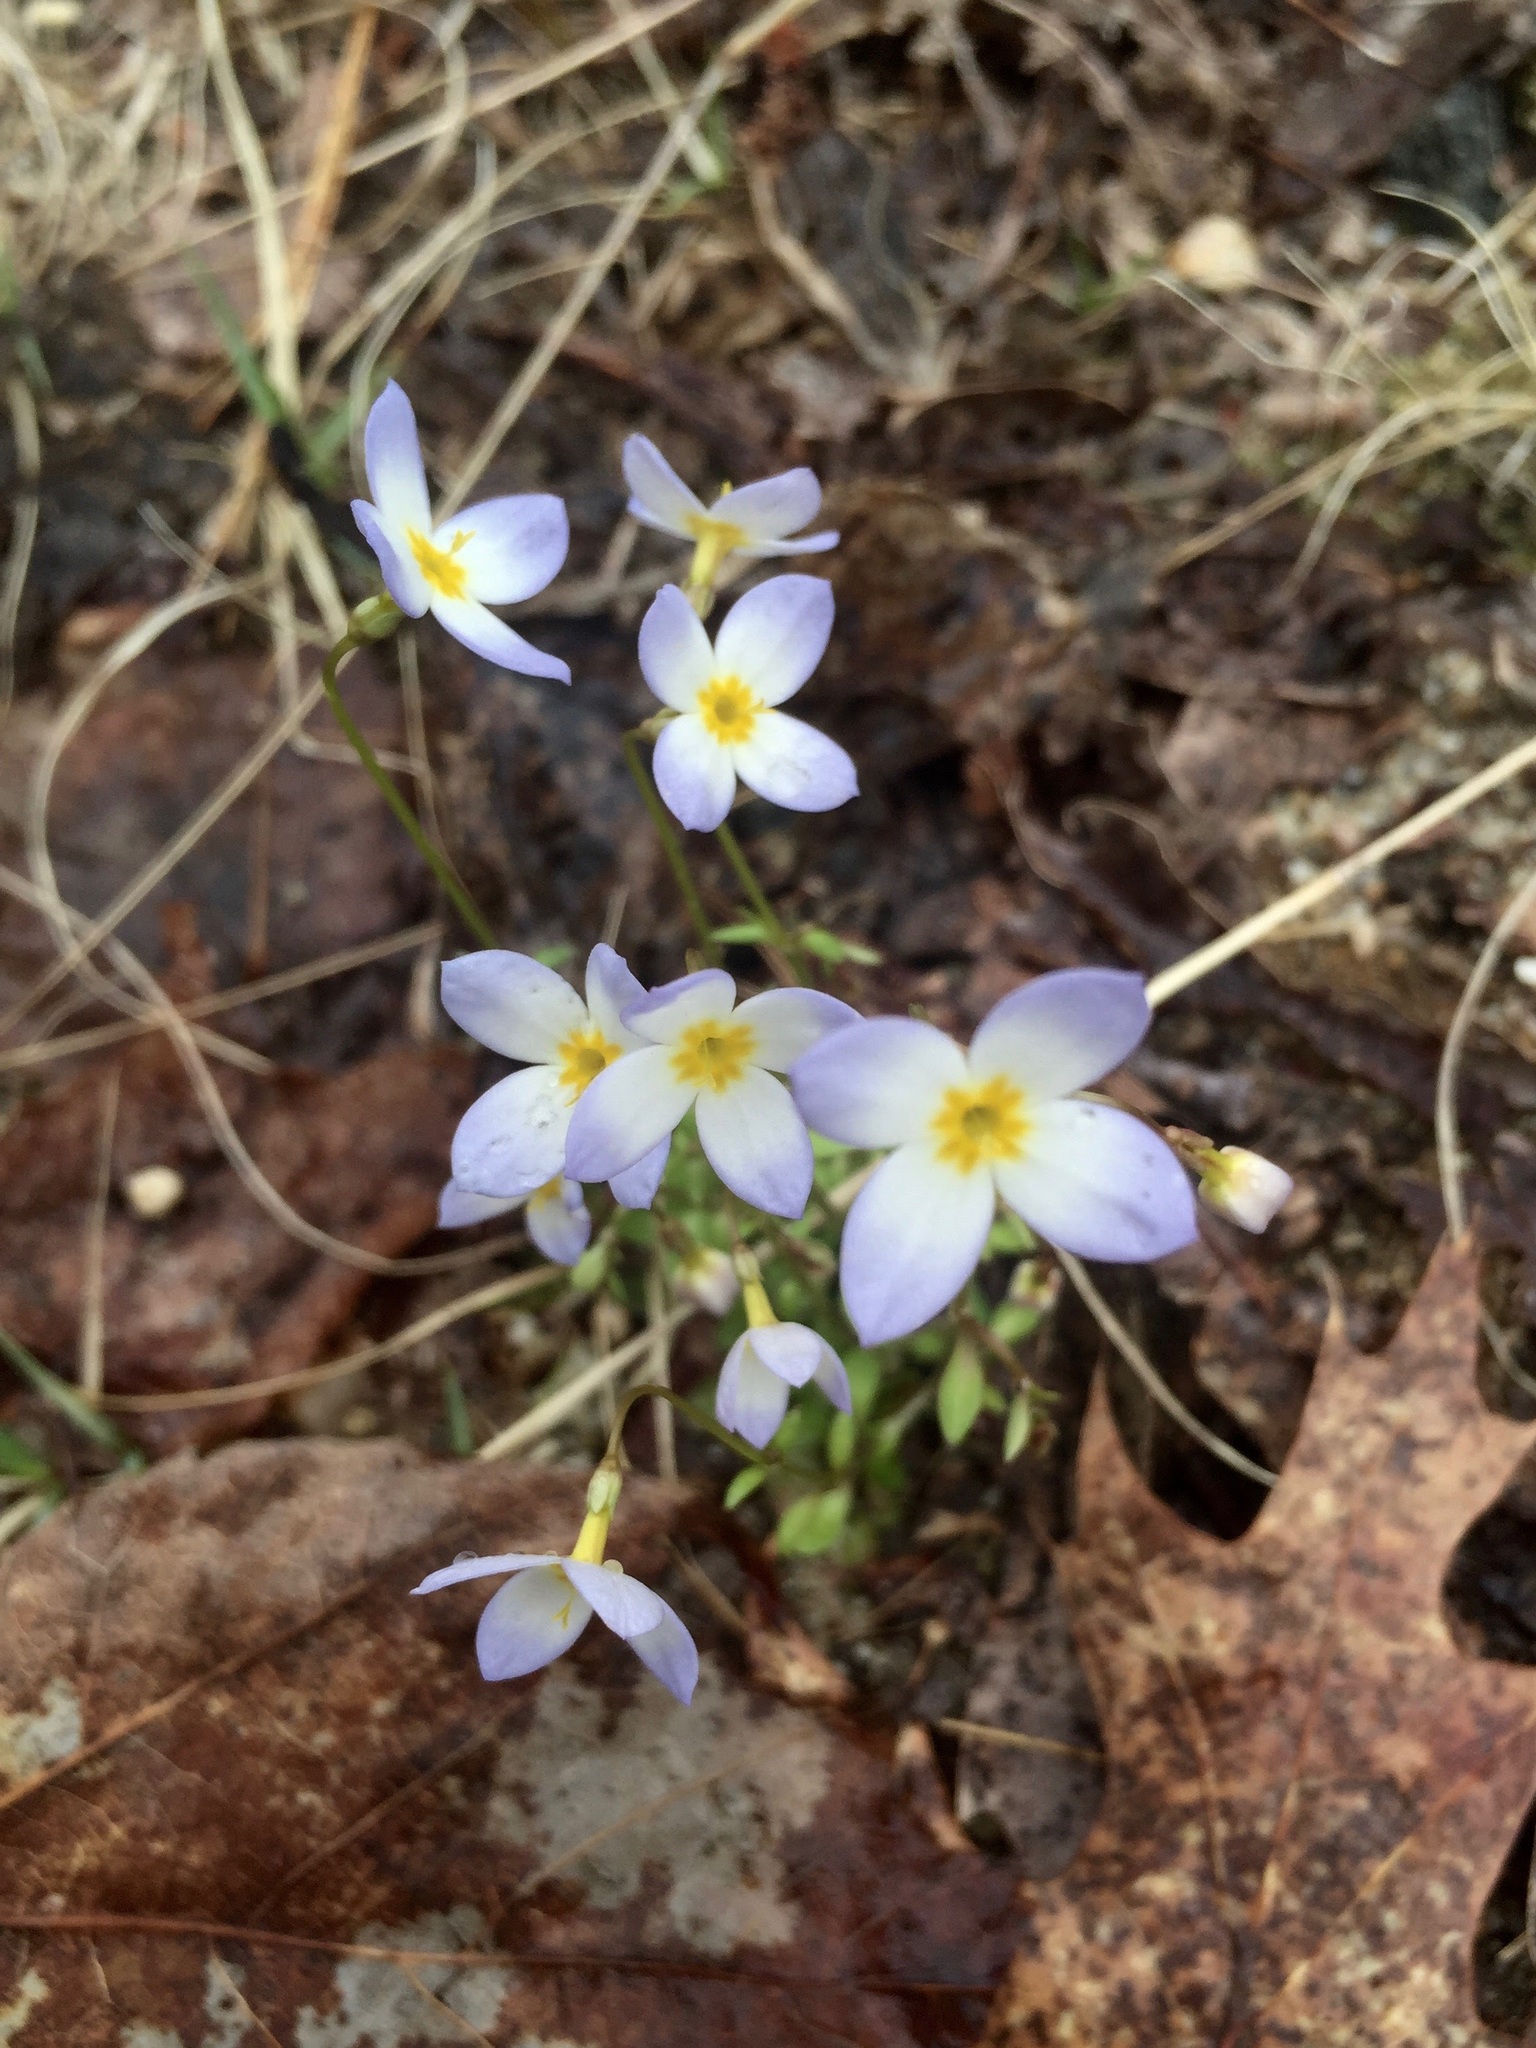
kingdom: Plantae
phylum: Tracheophyta
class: Magnoliopsida
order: Gentianales
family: Rubiaceae
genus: Houstonia
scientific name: Houstonia caerulea
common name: Bluets
